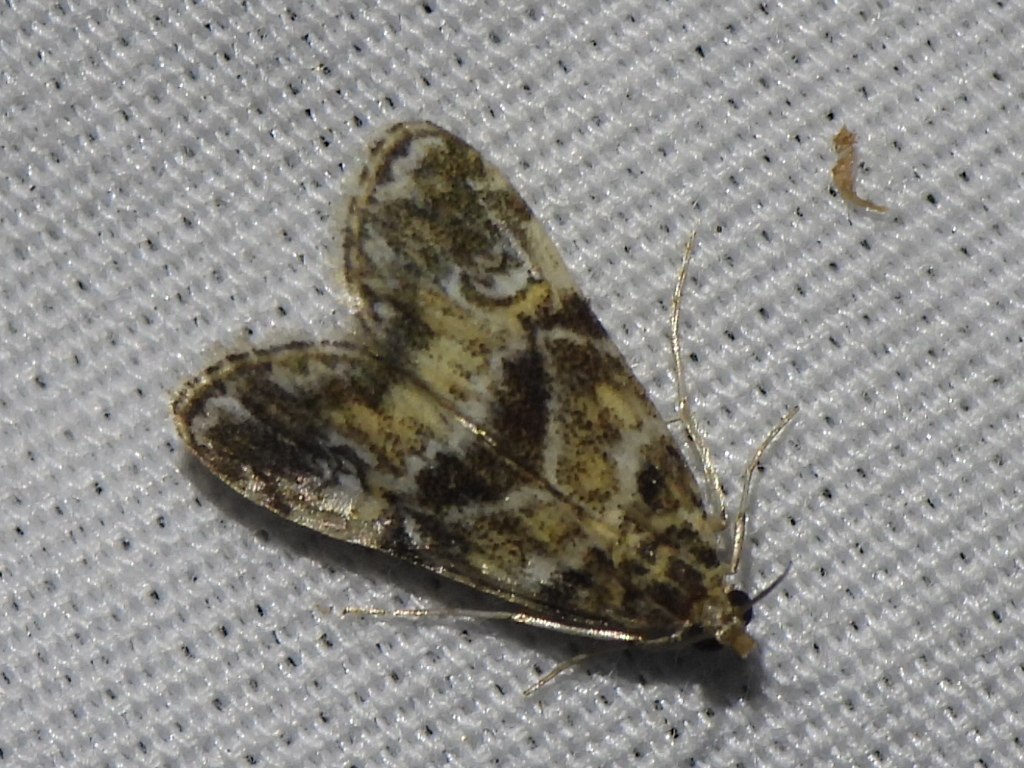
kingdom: Animalia
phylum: Arthropoda
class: Insecta
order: Lepidoptera
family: Crambidae
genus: Elophila
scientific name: Elophila obliteralis
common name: Waterlily leafcutter moth
